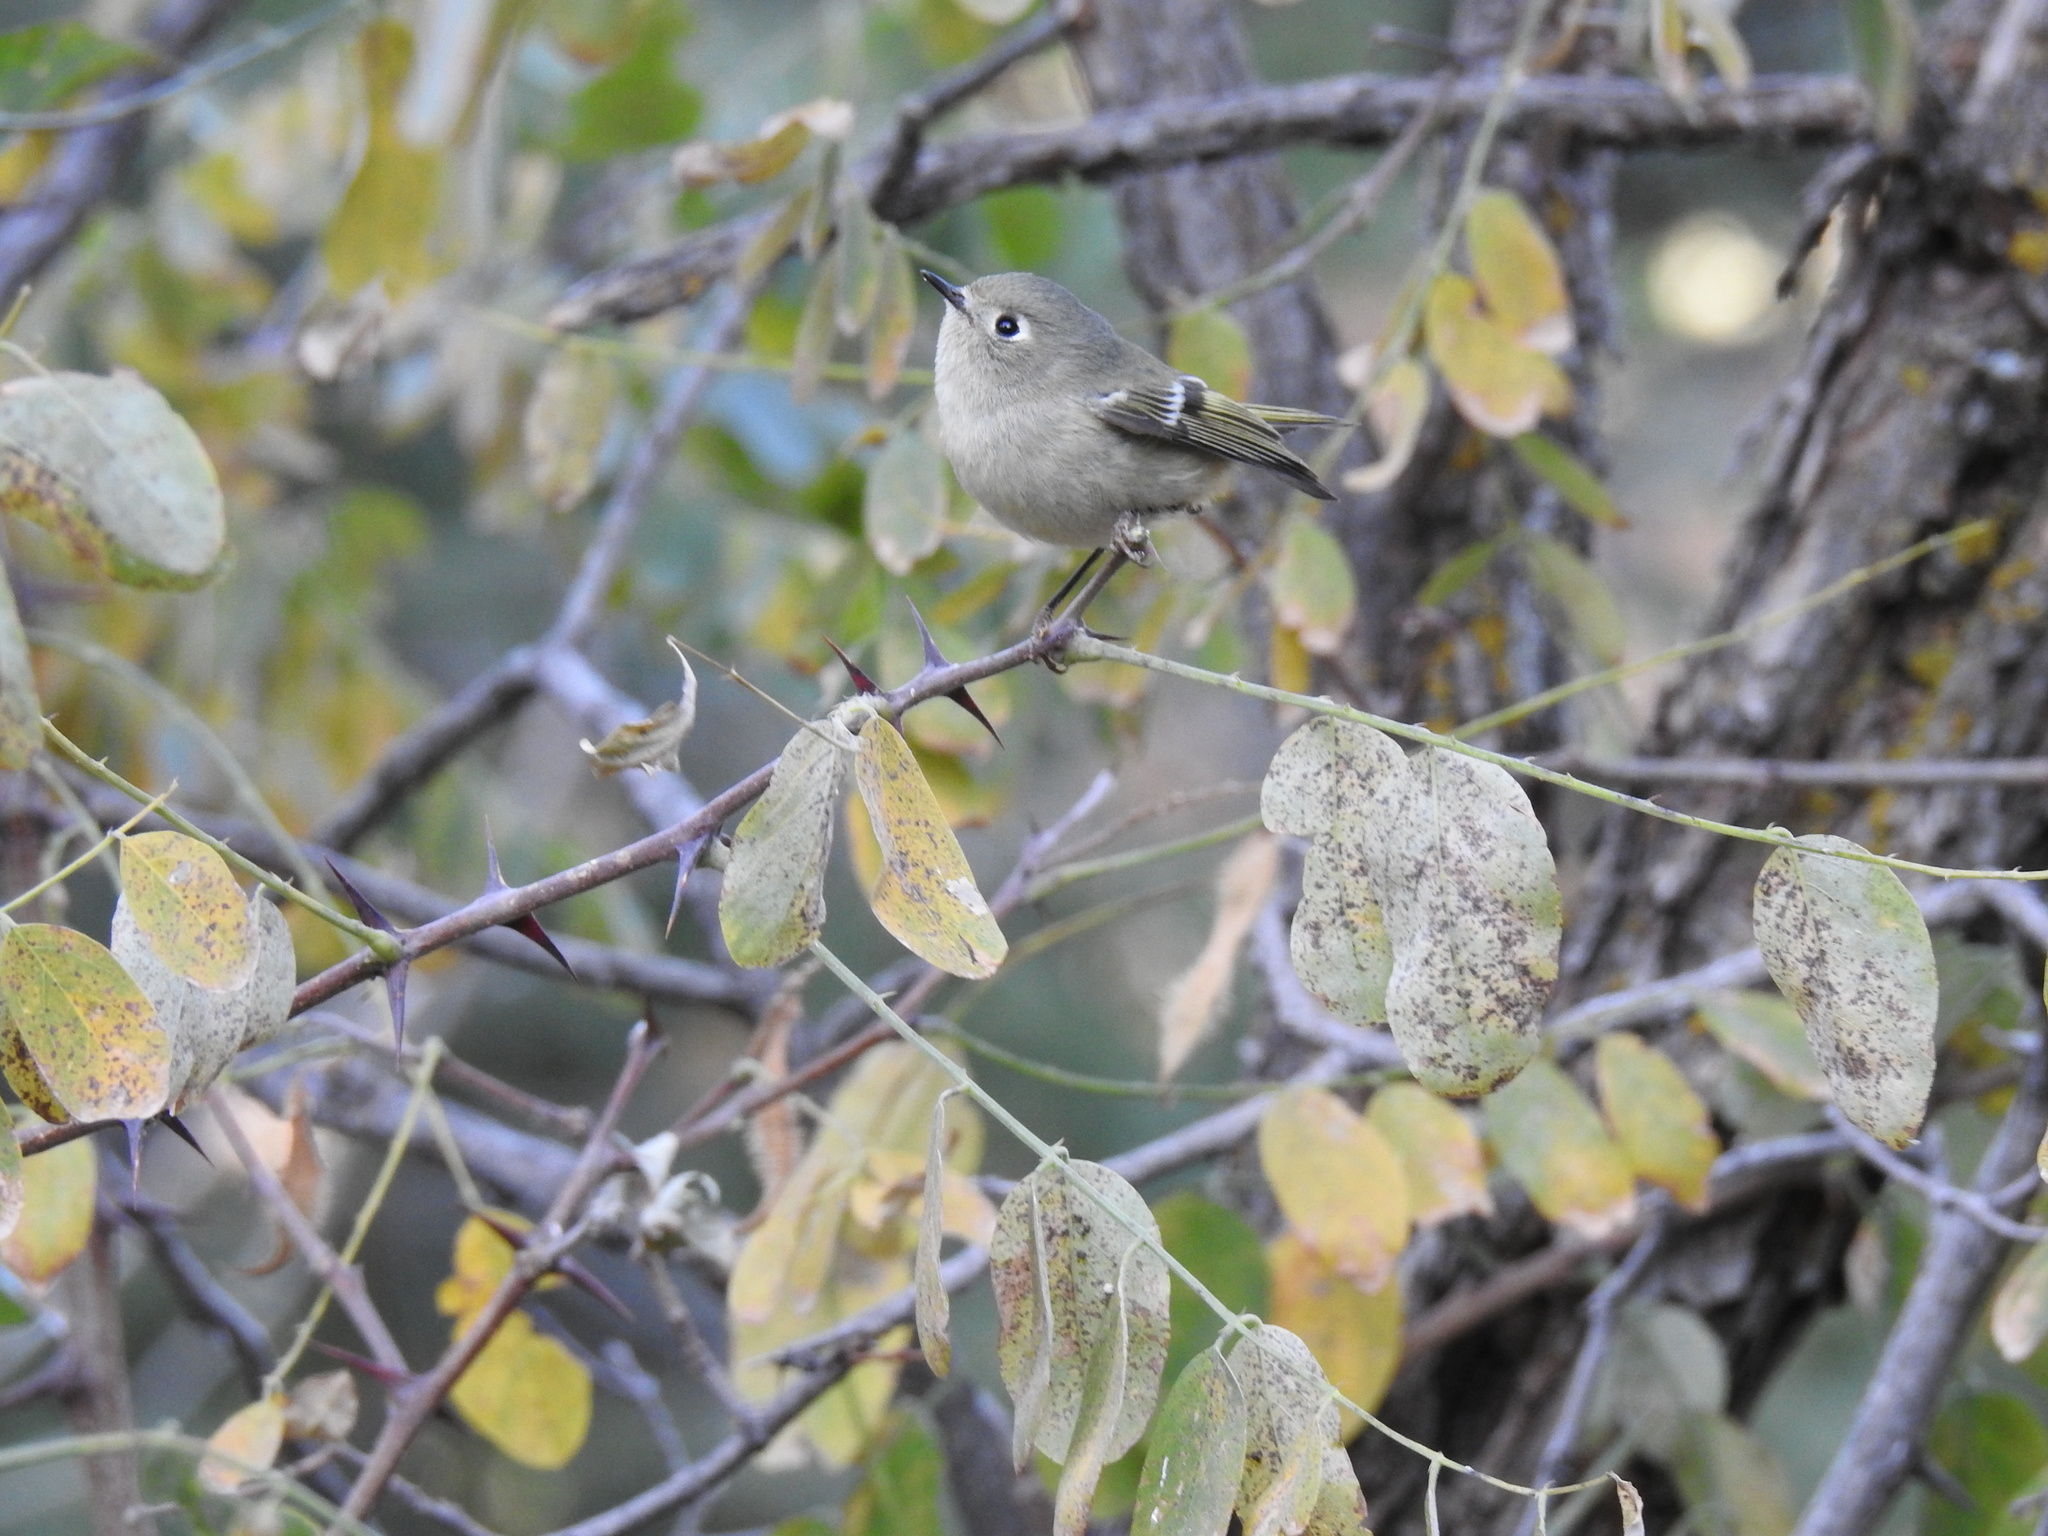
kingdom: Animalia
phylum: Chordata
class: Aves
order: Passeriformes
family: Regulidae
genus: Regulus
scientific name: Regulus calendula
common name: Ruby-crowned kinglet
